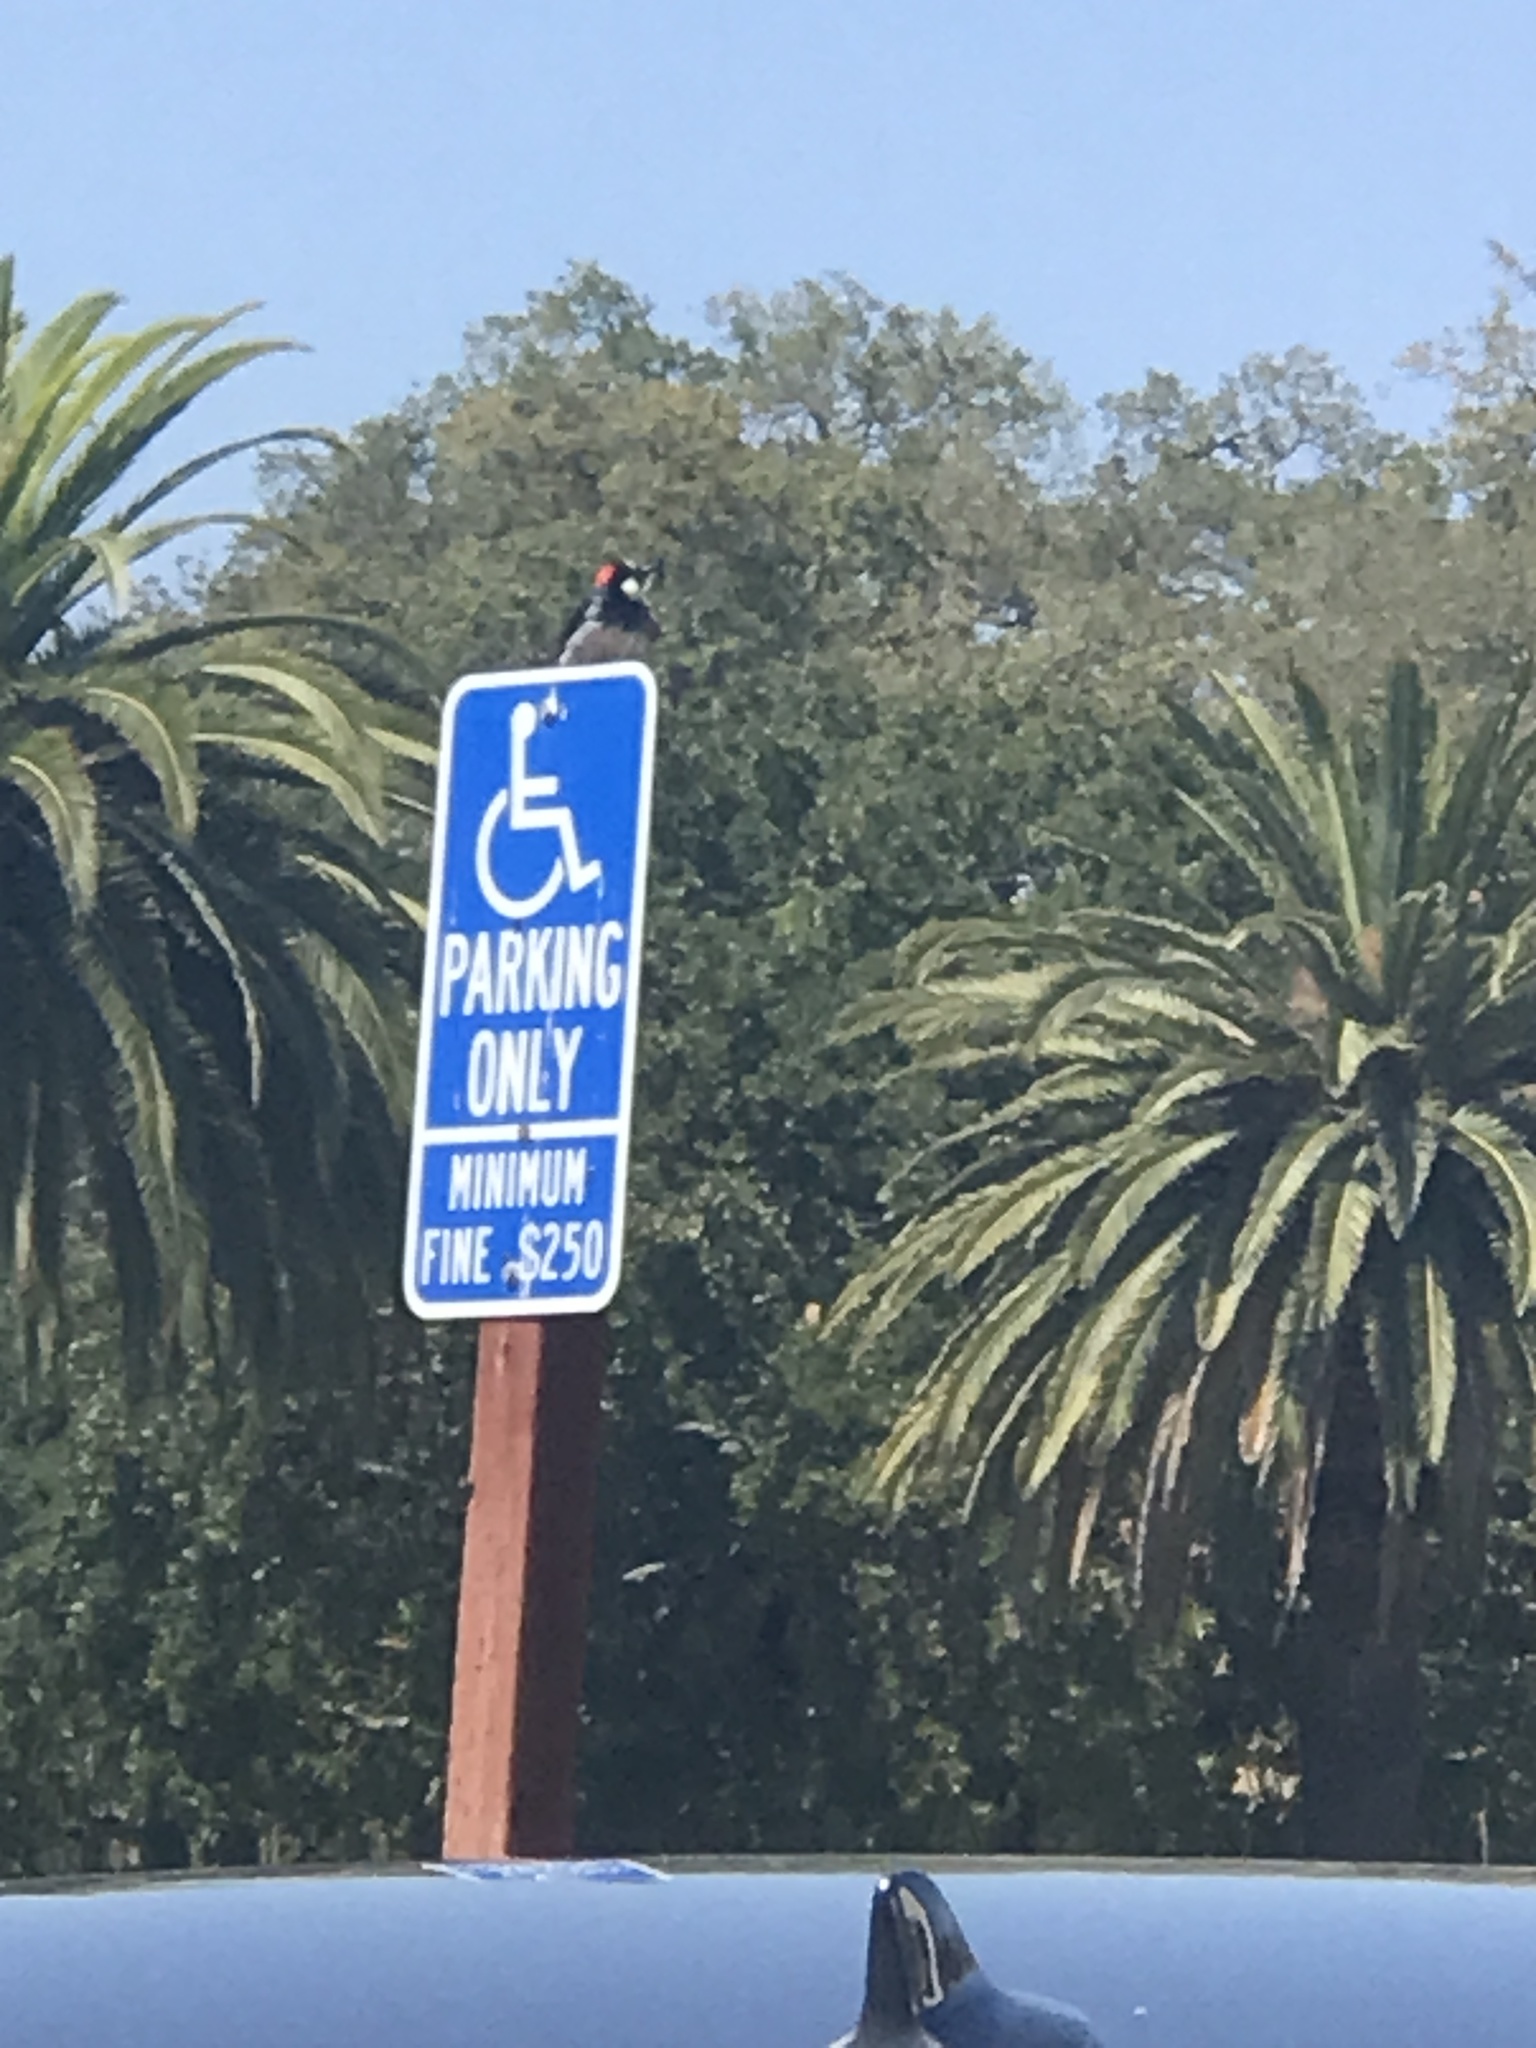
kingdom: Animalia
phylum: Chordata
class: Aves
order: Piciformes
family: Picidae
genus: Melanerpes
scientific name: Melanerpes formicivorus
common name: Acorn woodpecker
